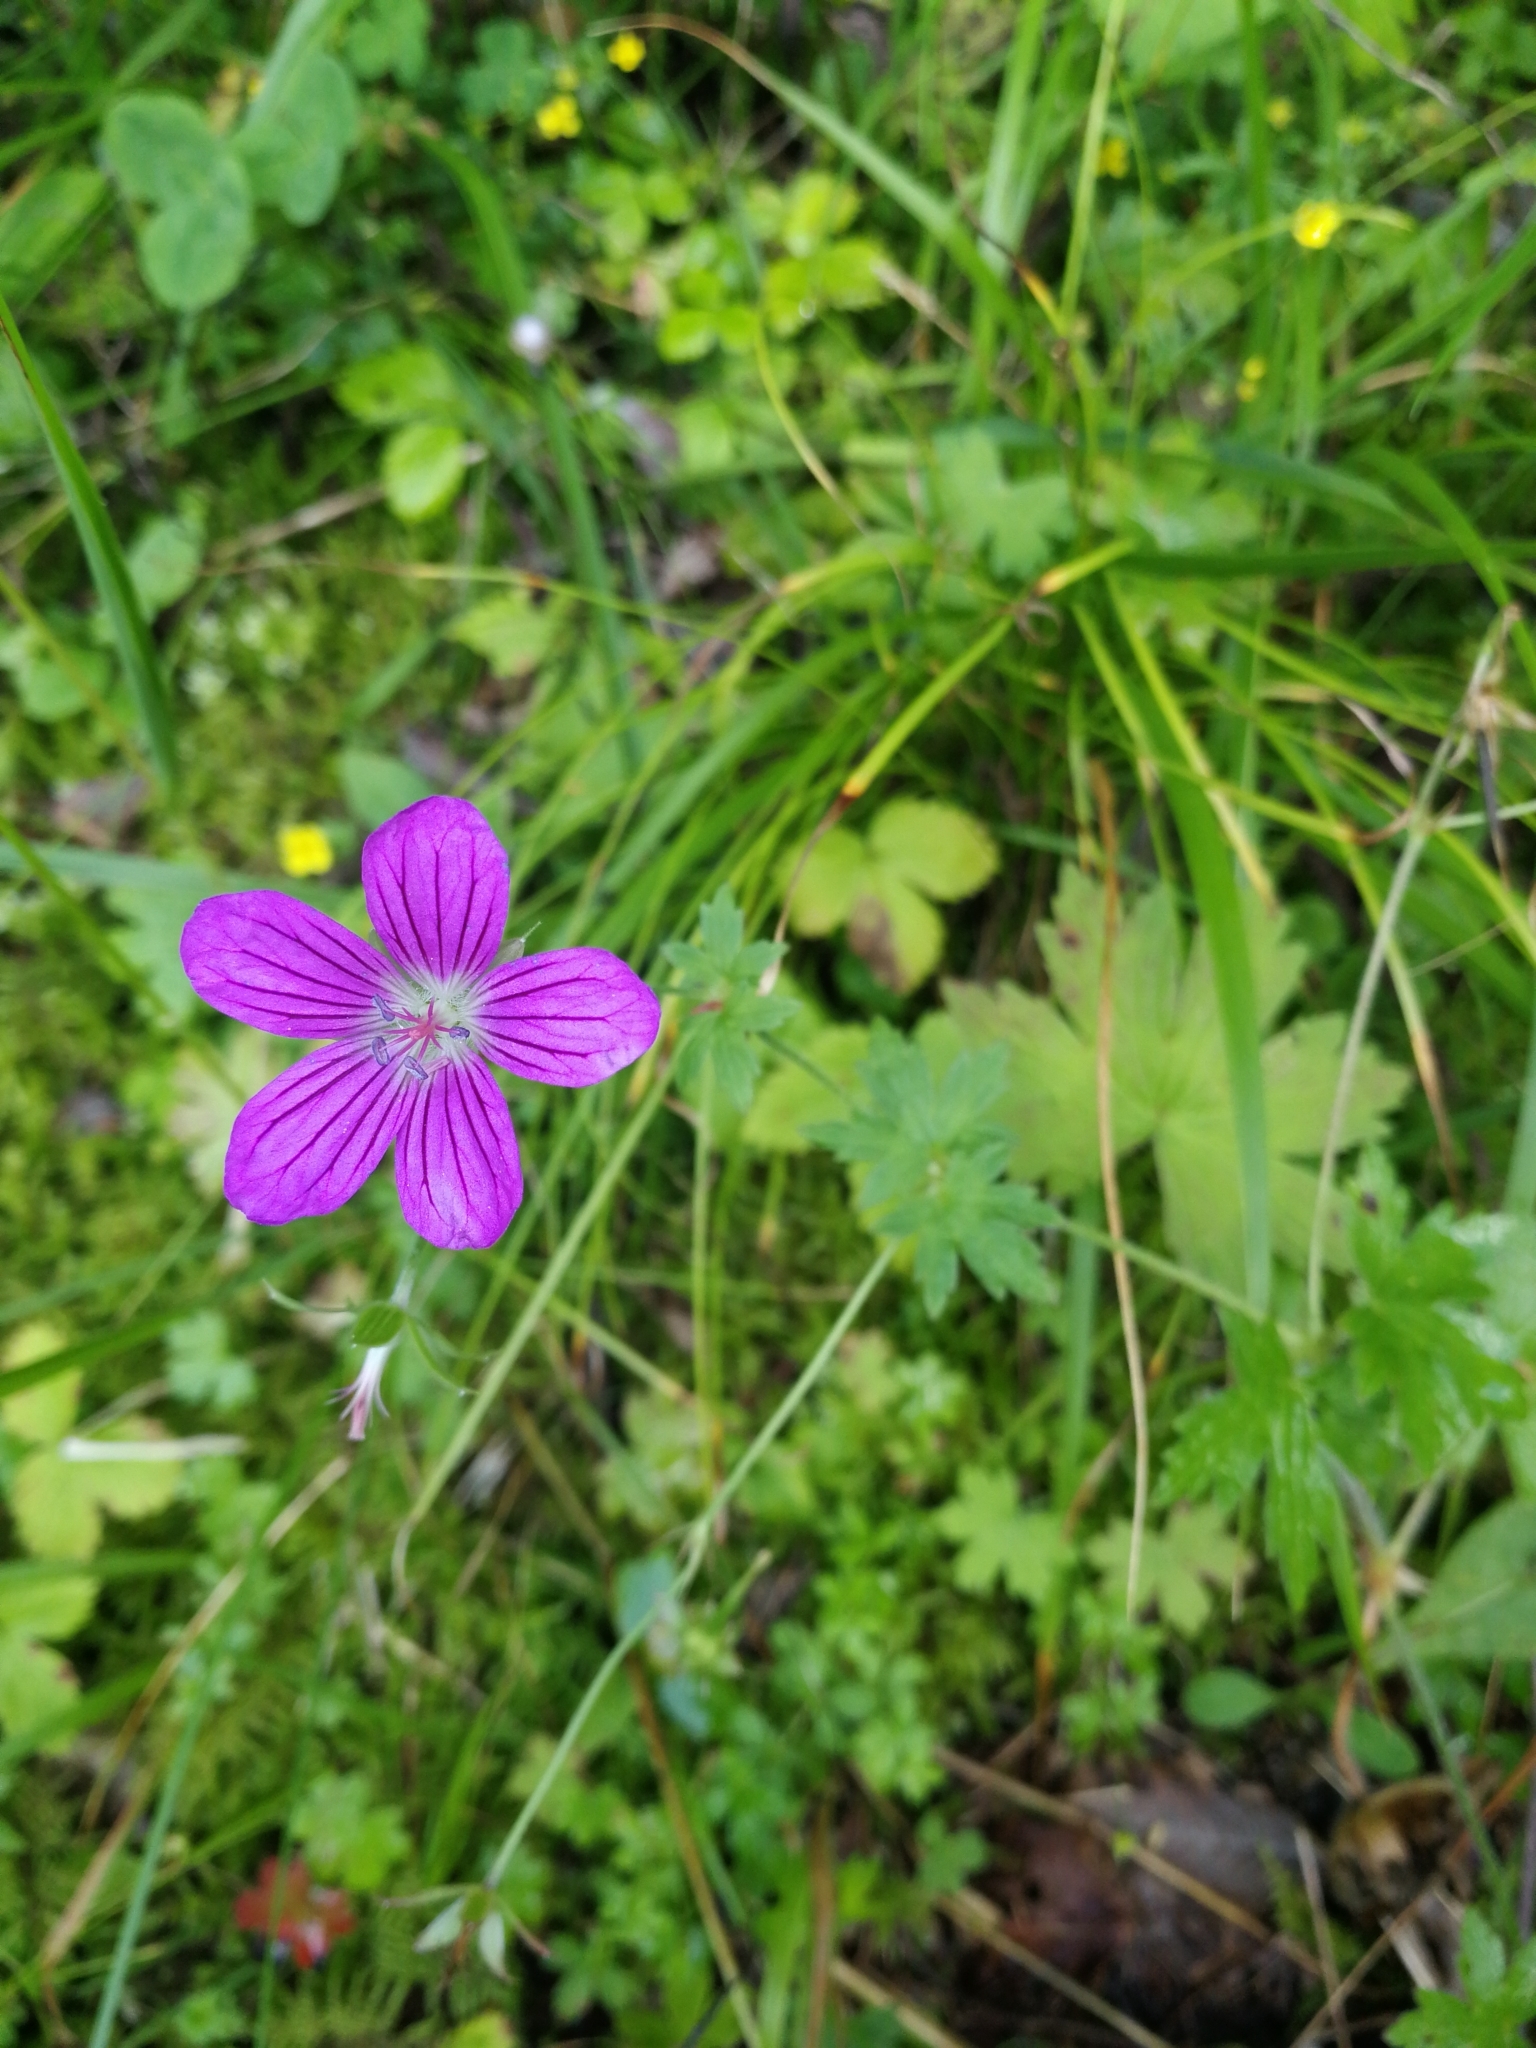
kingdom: Plantae
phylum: Tracheophyta
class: Magnoliopsida
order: Geraniales
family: Geraniaceae
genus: Geranium
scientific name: Geranium palustre
